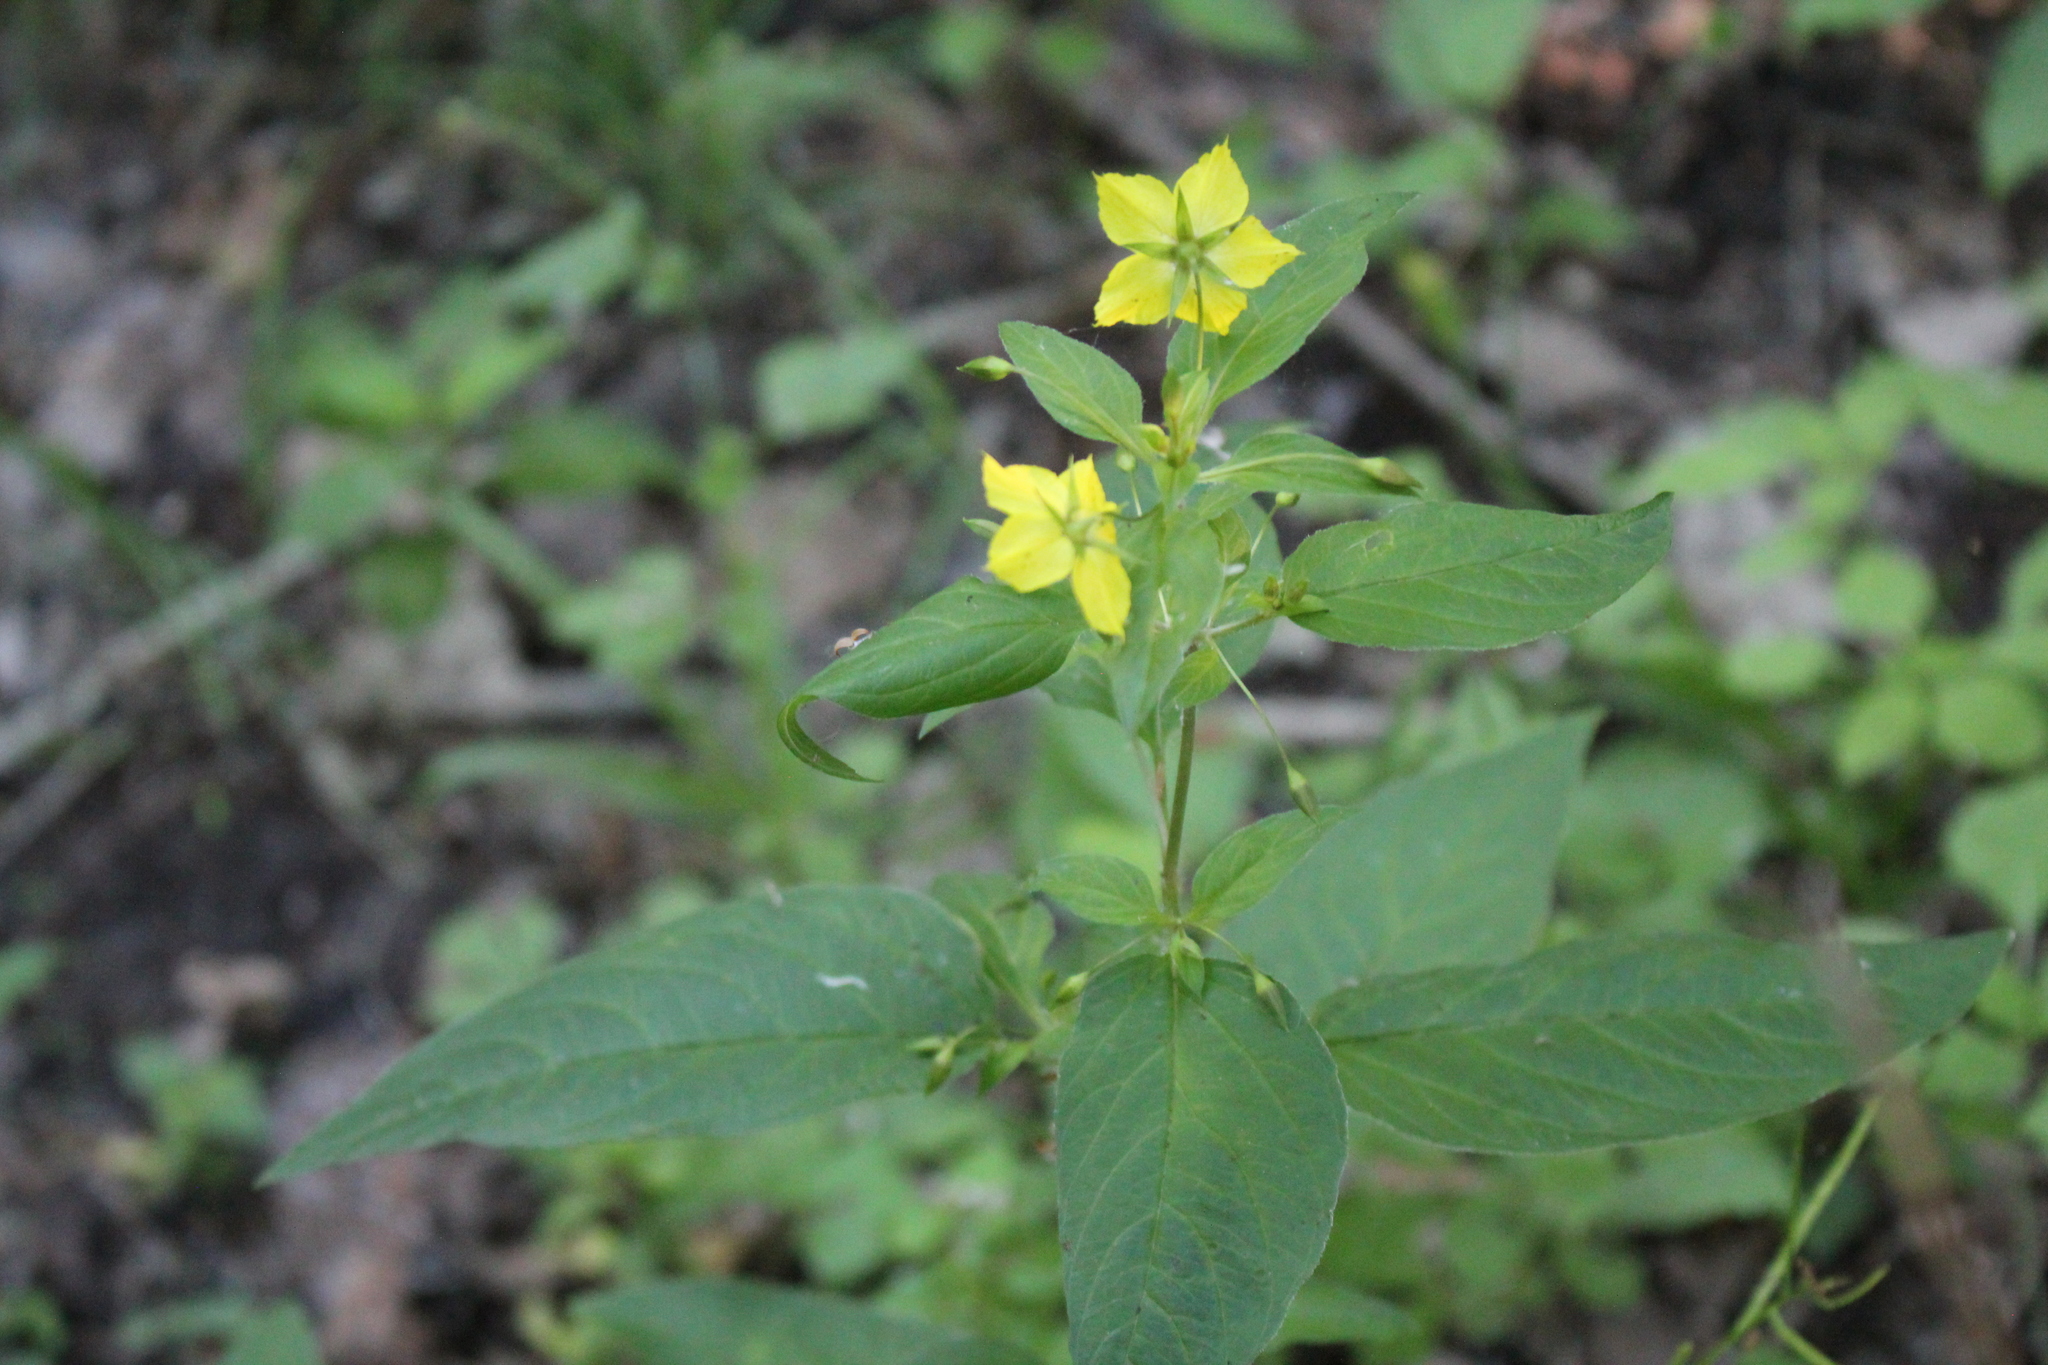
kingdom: Plantae
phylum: Tracheophyta
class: Magnoliopsida
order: Ericales
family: Primulaceae
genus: Lysimachia
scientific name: Lysimachia ciliata
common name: Fringed loosestrife
